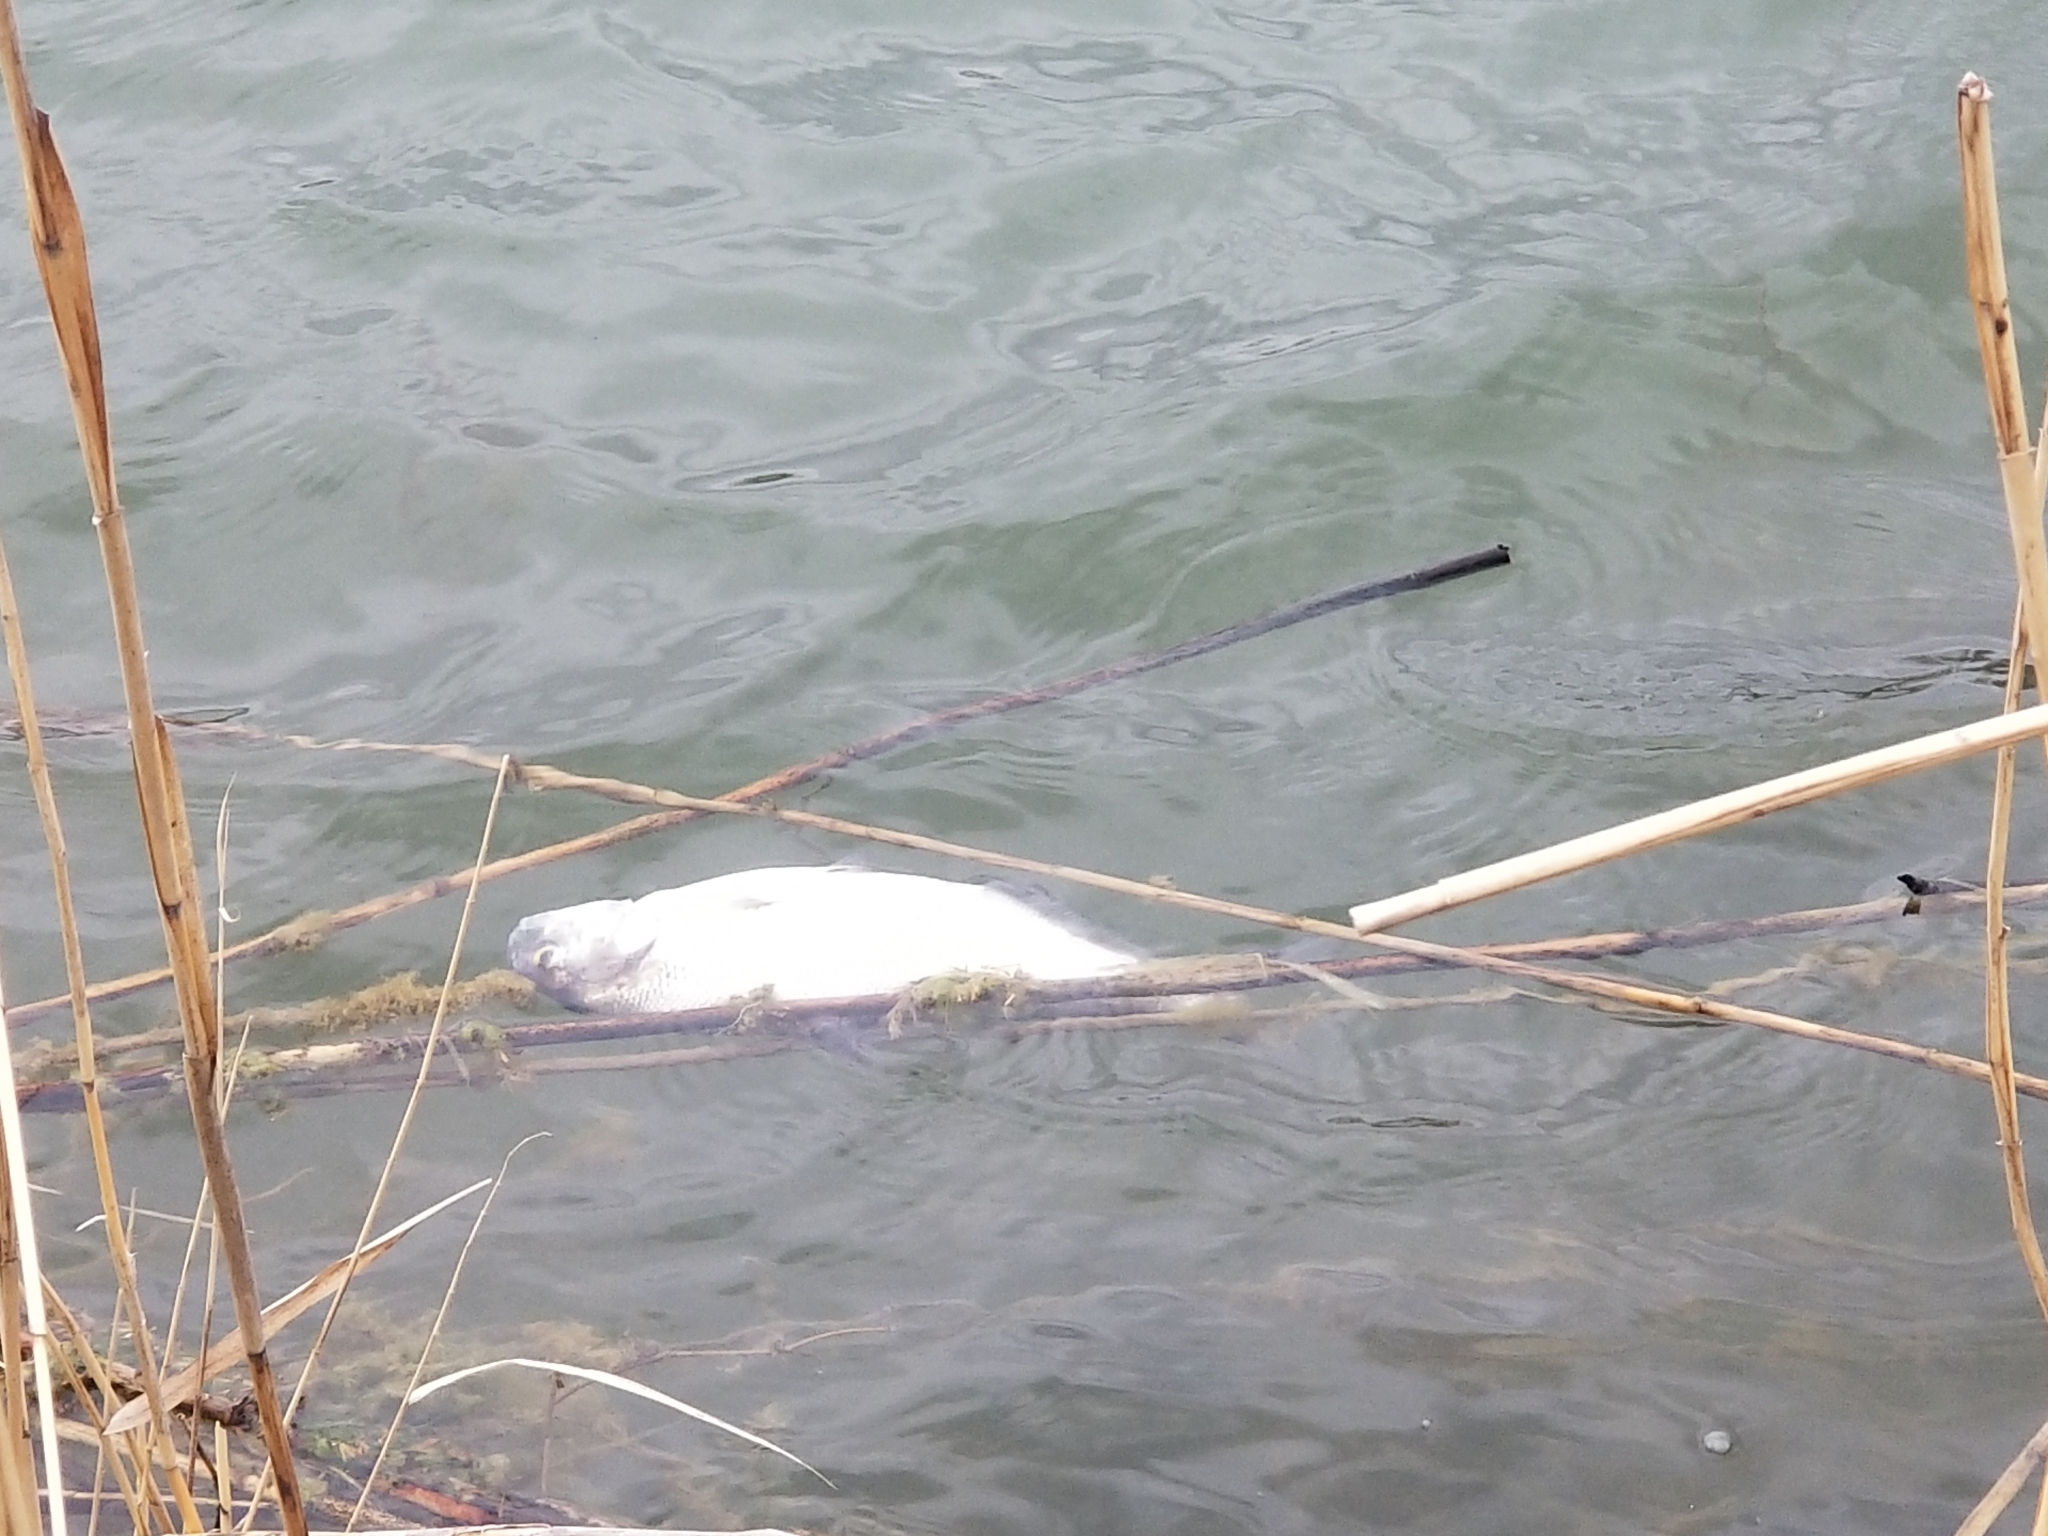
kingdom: Animalia
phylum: Chordata
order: Clupeiformes
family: Clupeidae
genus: Dorosoma
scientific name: Dorosoma cepedianum
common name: Gizzard shad
